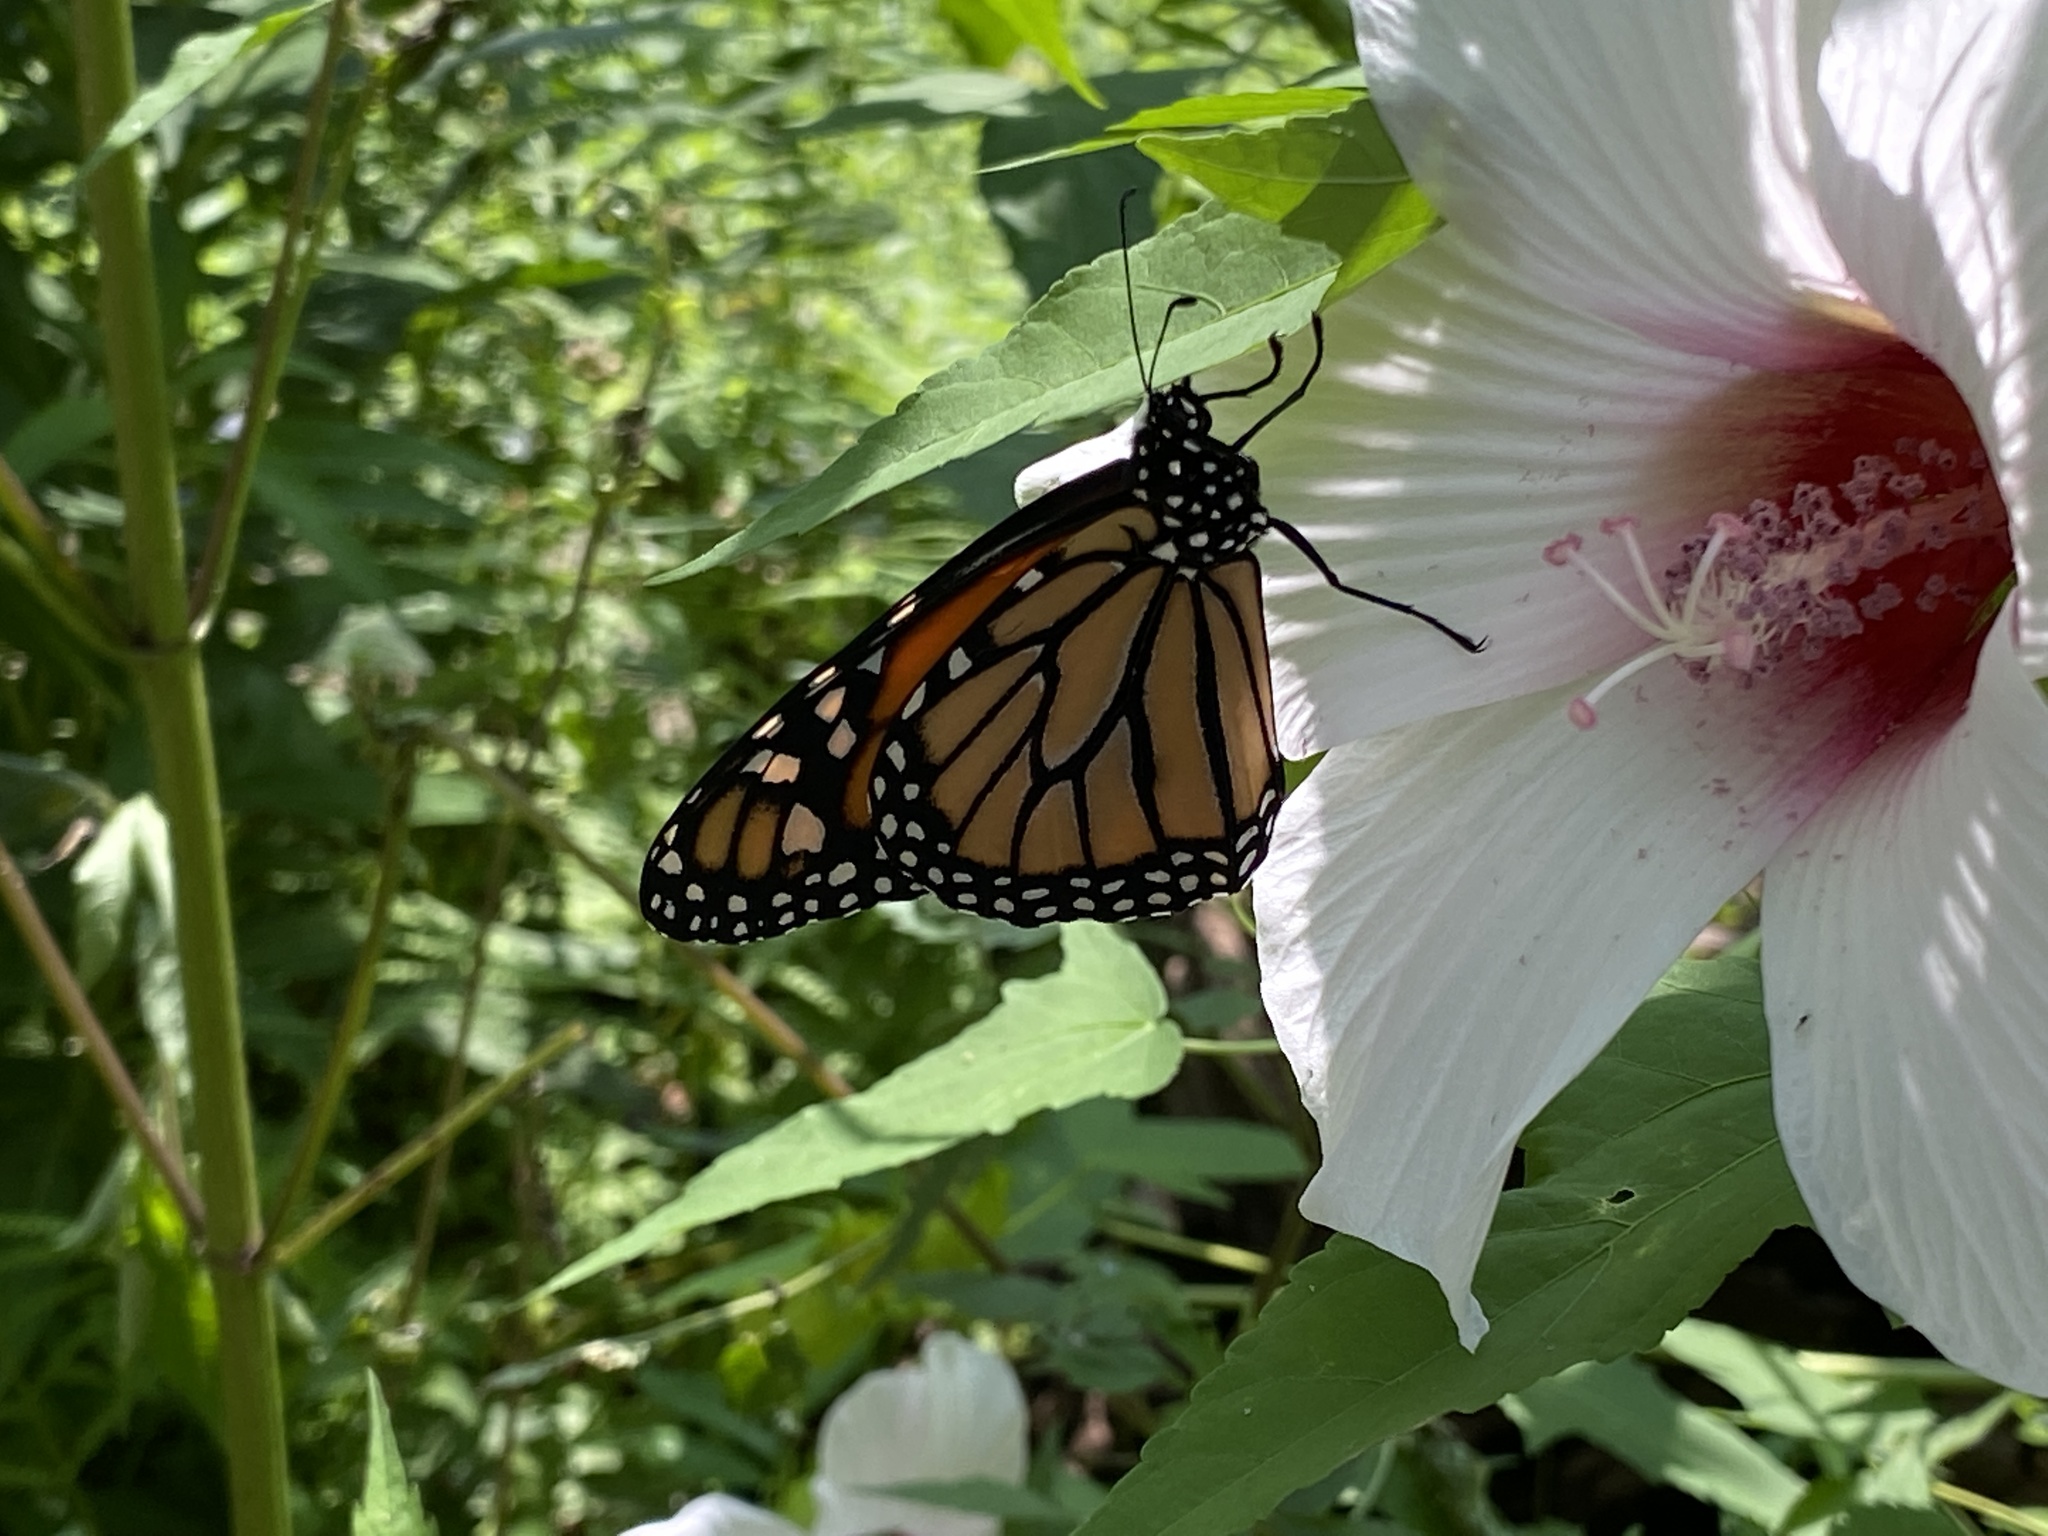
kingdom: Animalia
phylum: Arthropoda
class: Insecta
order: Lepidoptera
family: Nymphalidae
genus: Danaus
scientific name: Danaus plexippus
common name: Monarch
